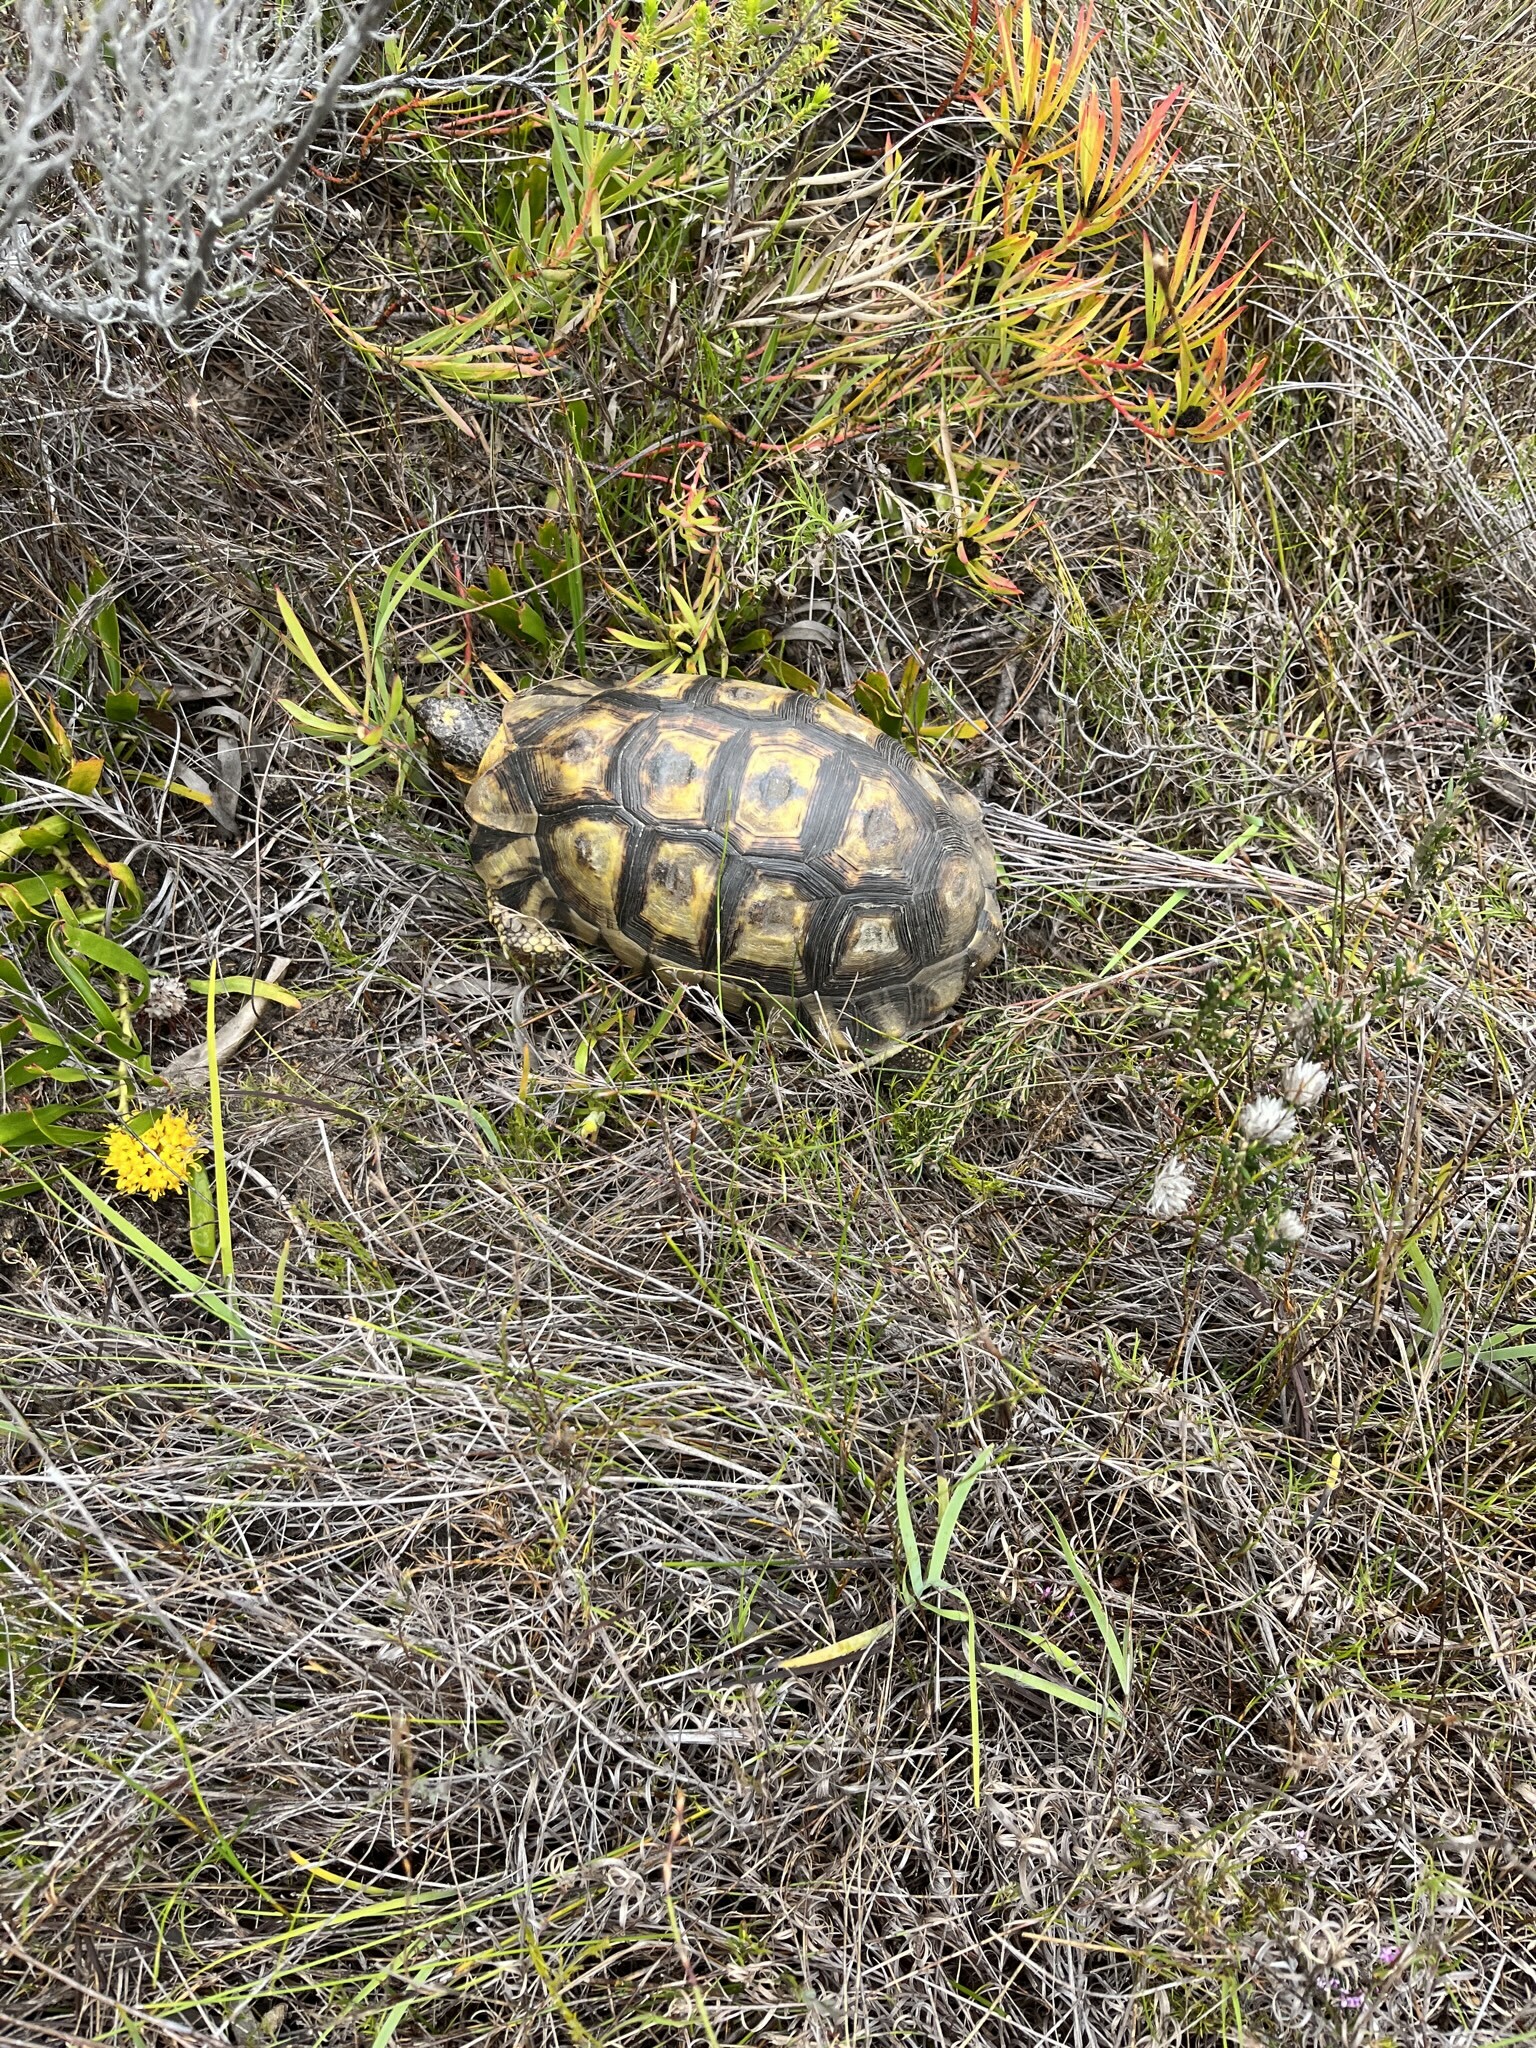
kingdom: Animalia
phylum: Chordata
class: Testudines
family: Testudinidae
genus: Chersina
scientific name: Chersina angulata
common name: South african bowsprit tortoise
